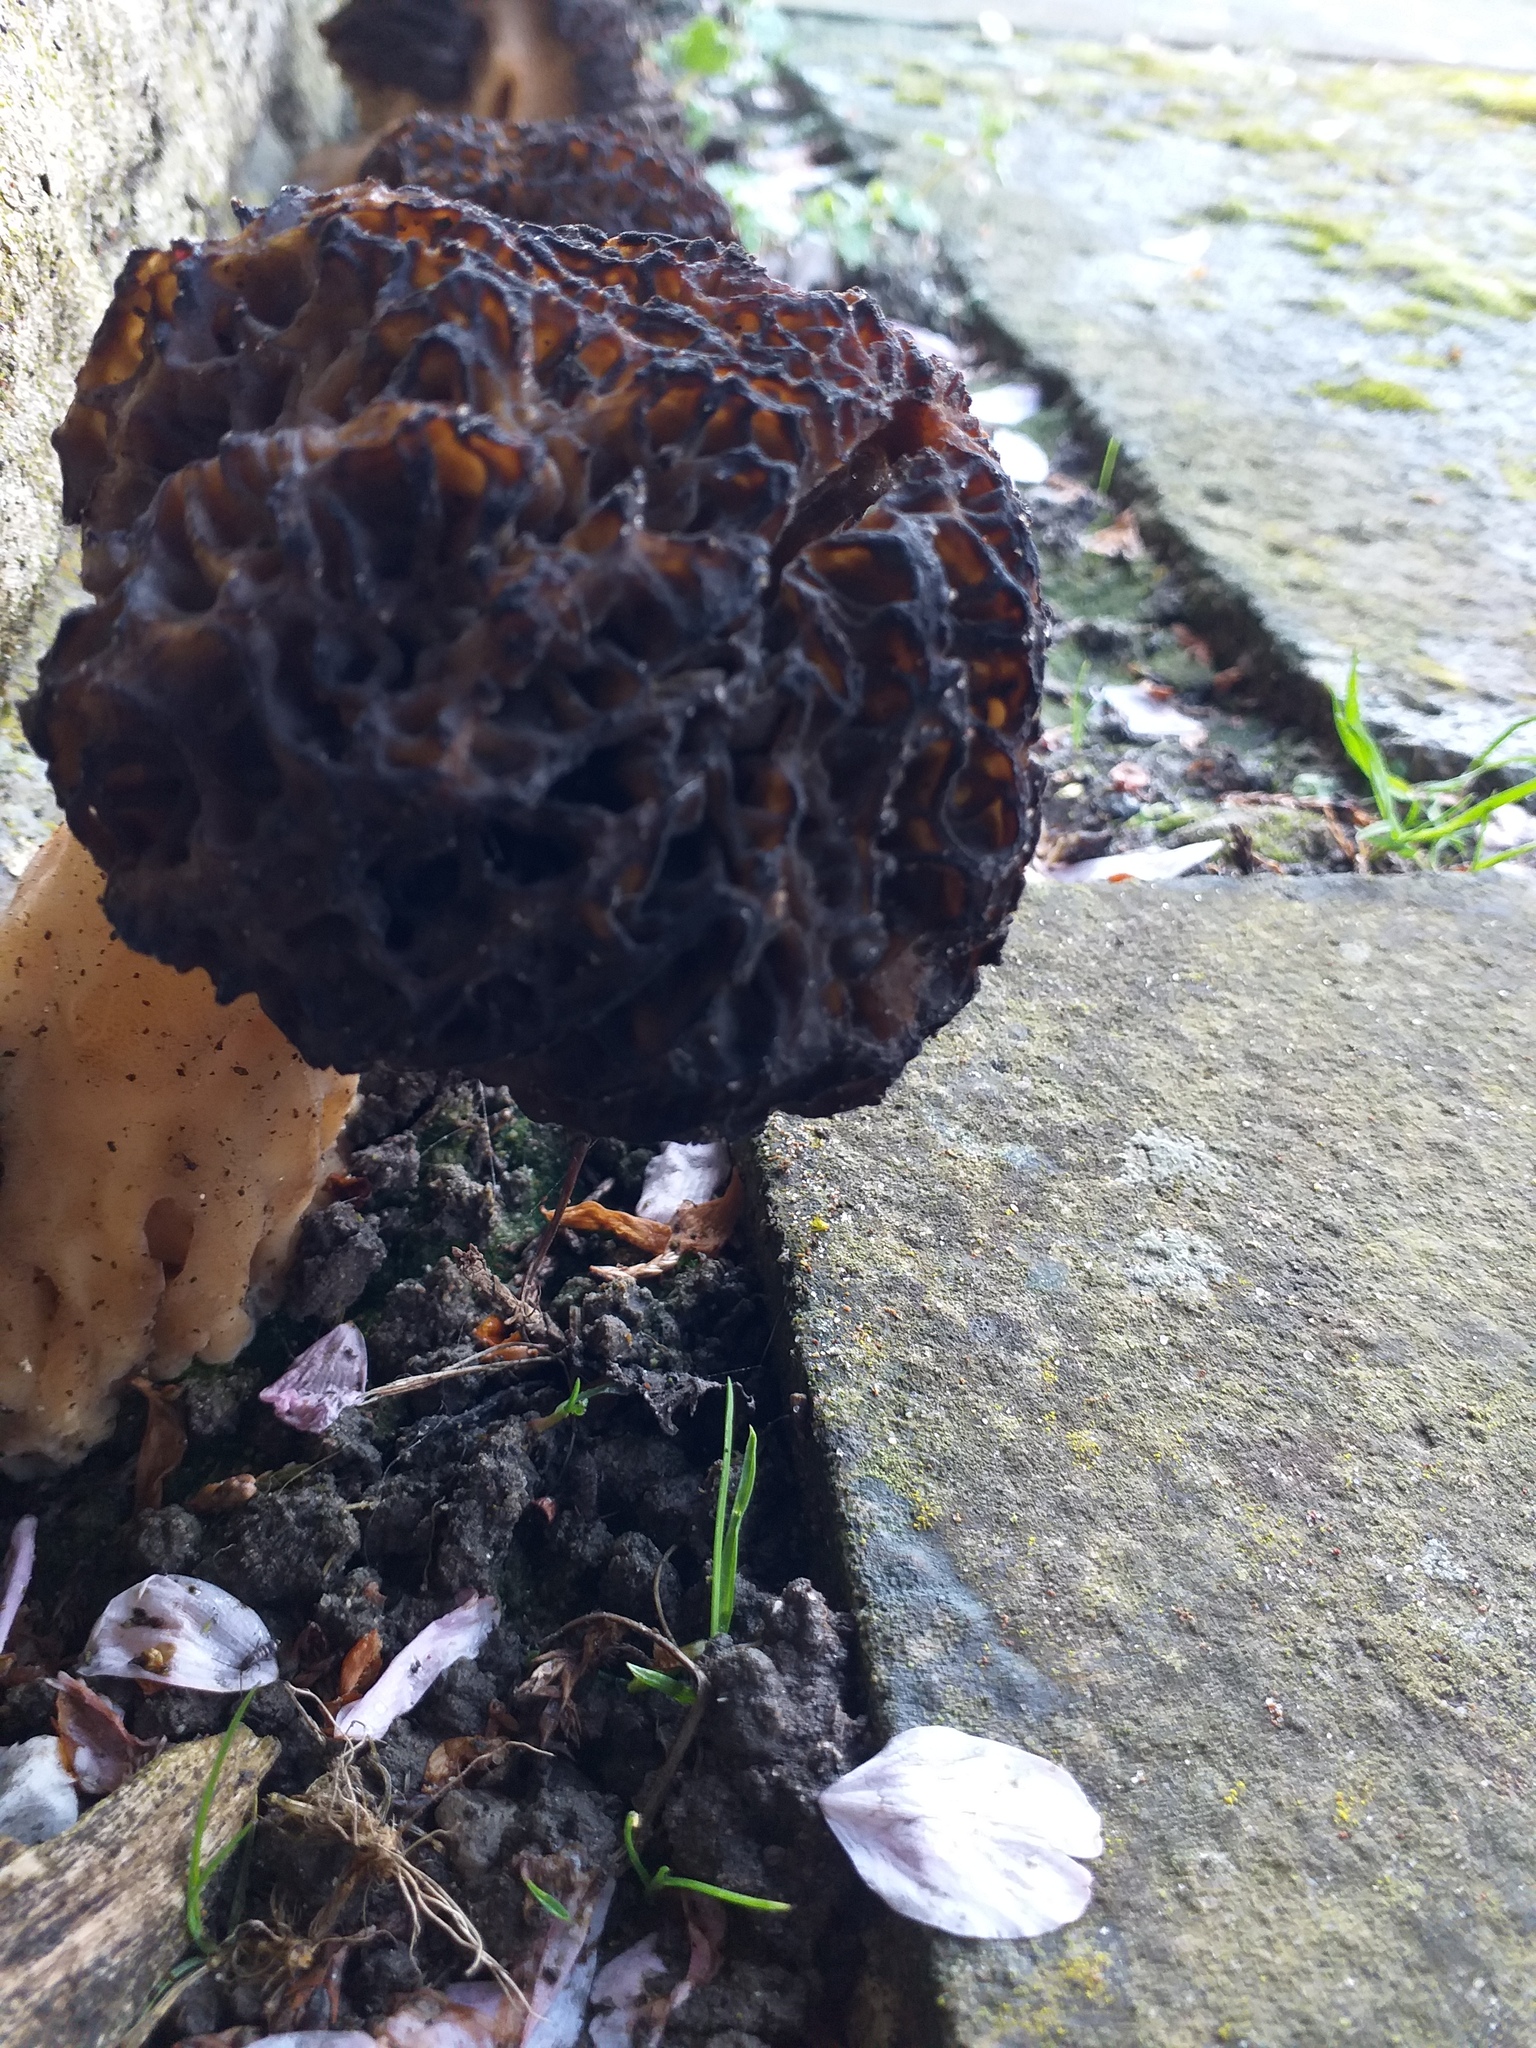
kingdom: Fungi
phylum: Ascomycota
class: Pezizomycetes
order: Pezizales
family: Morchellaceae
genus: Morchella
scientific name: Morchella importuna
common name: Landscaping black morel
